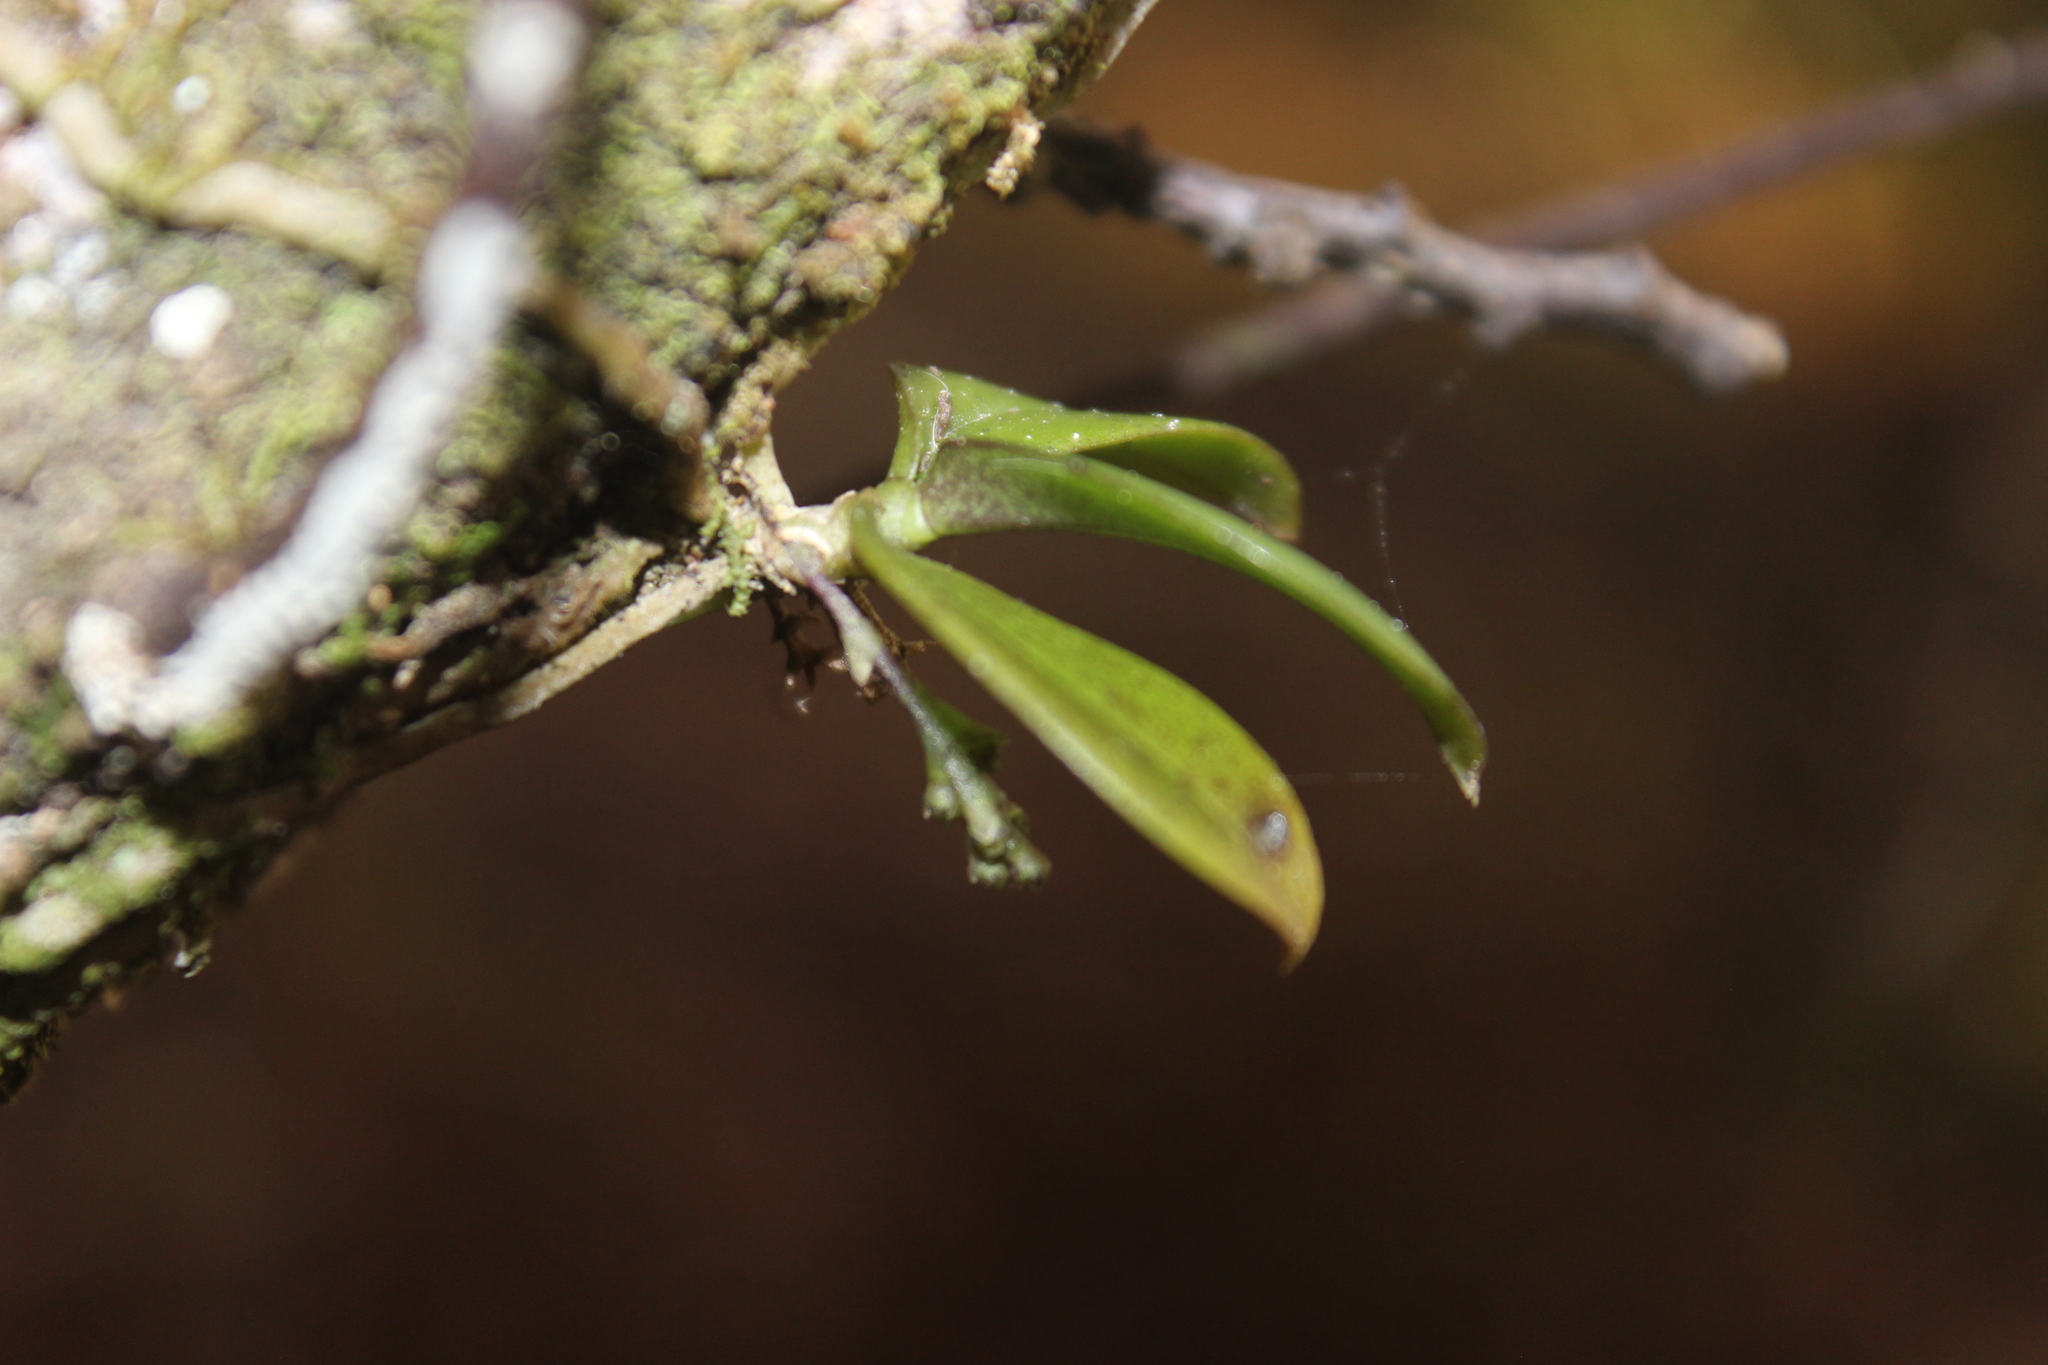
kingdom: Plantae
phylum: Tracheophyta
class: Liliopsida
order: Asparagales
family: Orchidaceae
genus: Drymoanthus
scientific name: Drymoanthus adversus
